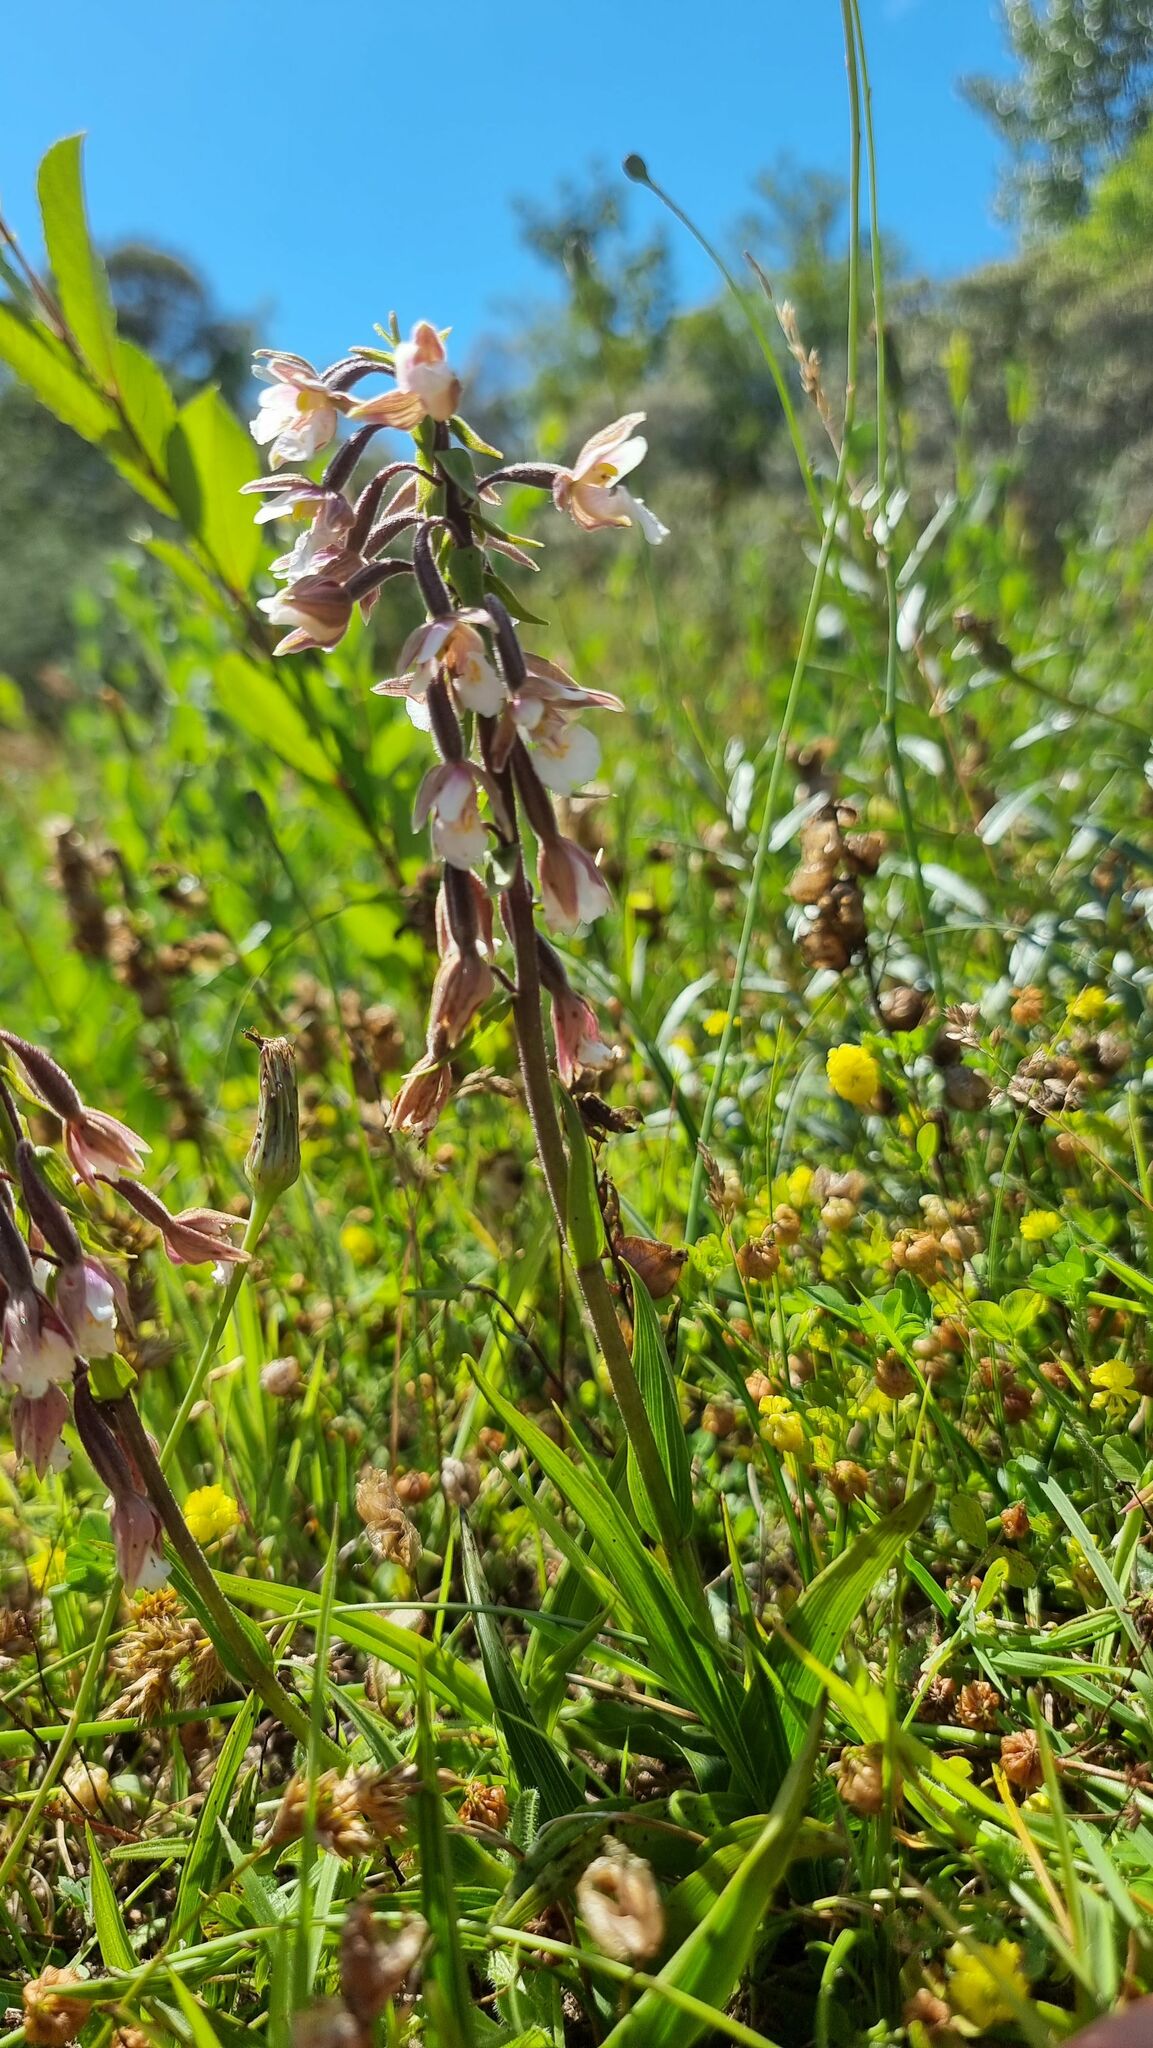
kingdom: Plantae
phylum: Tracheophyta
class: Liliopsida
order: Asparagales
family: Orchidaceae
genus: Epipactis
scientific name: Epipactis palustris
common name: Marsh helleborine
